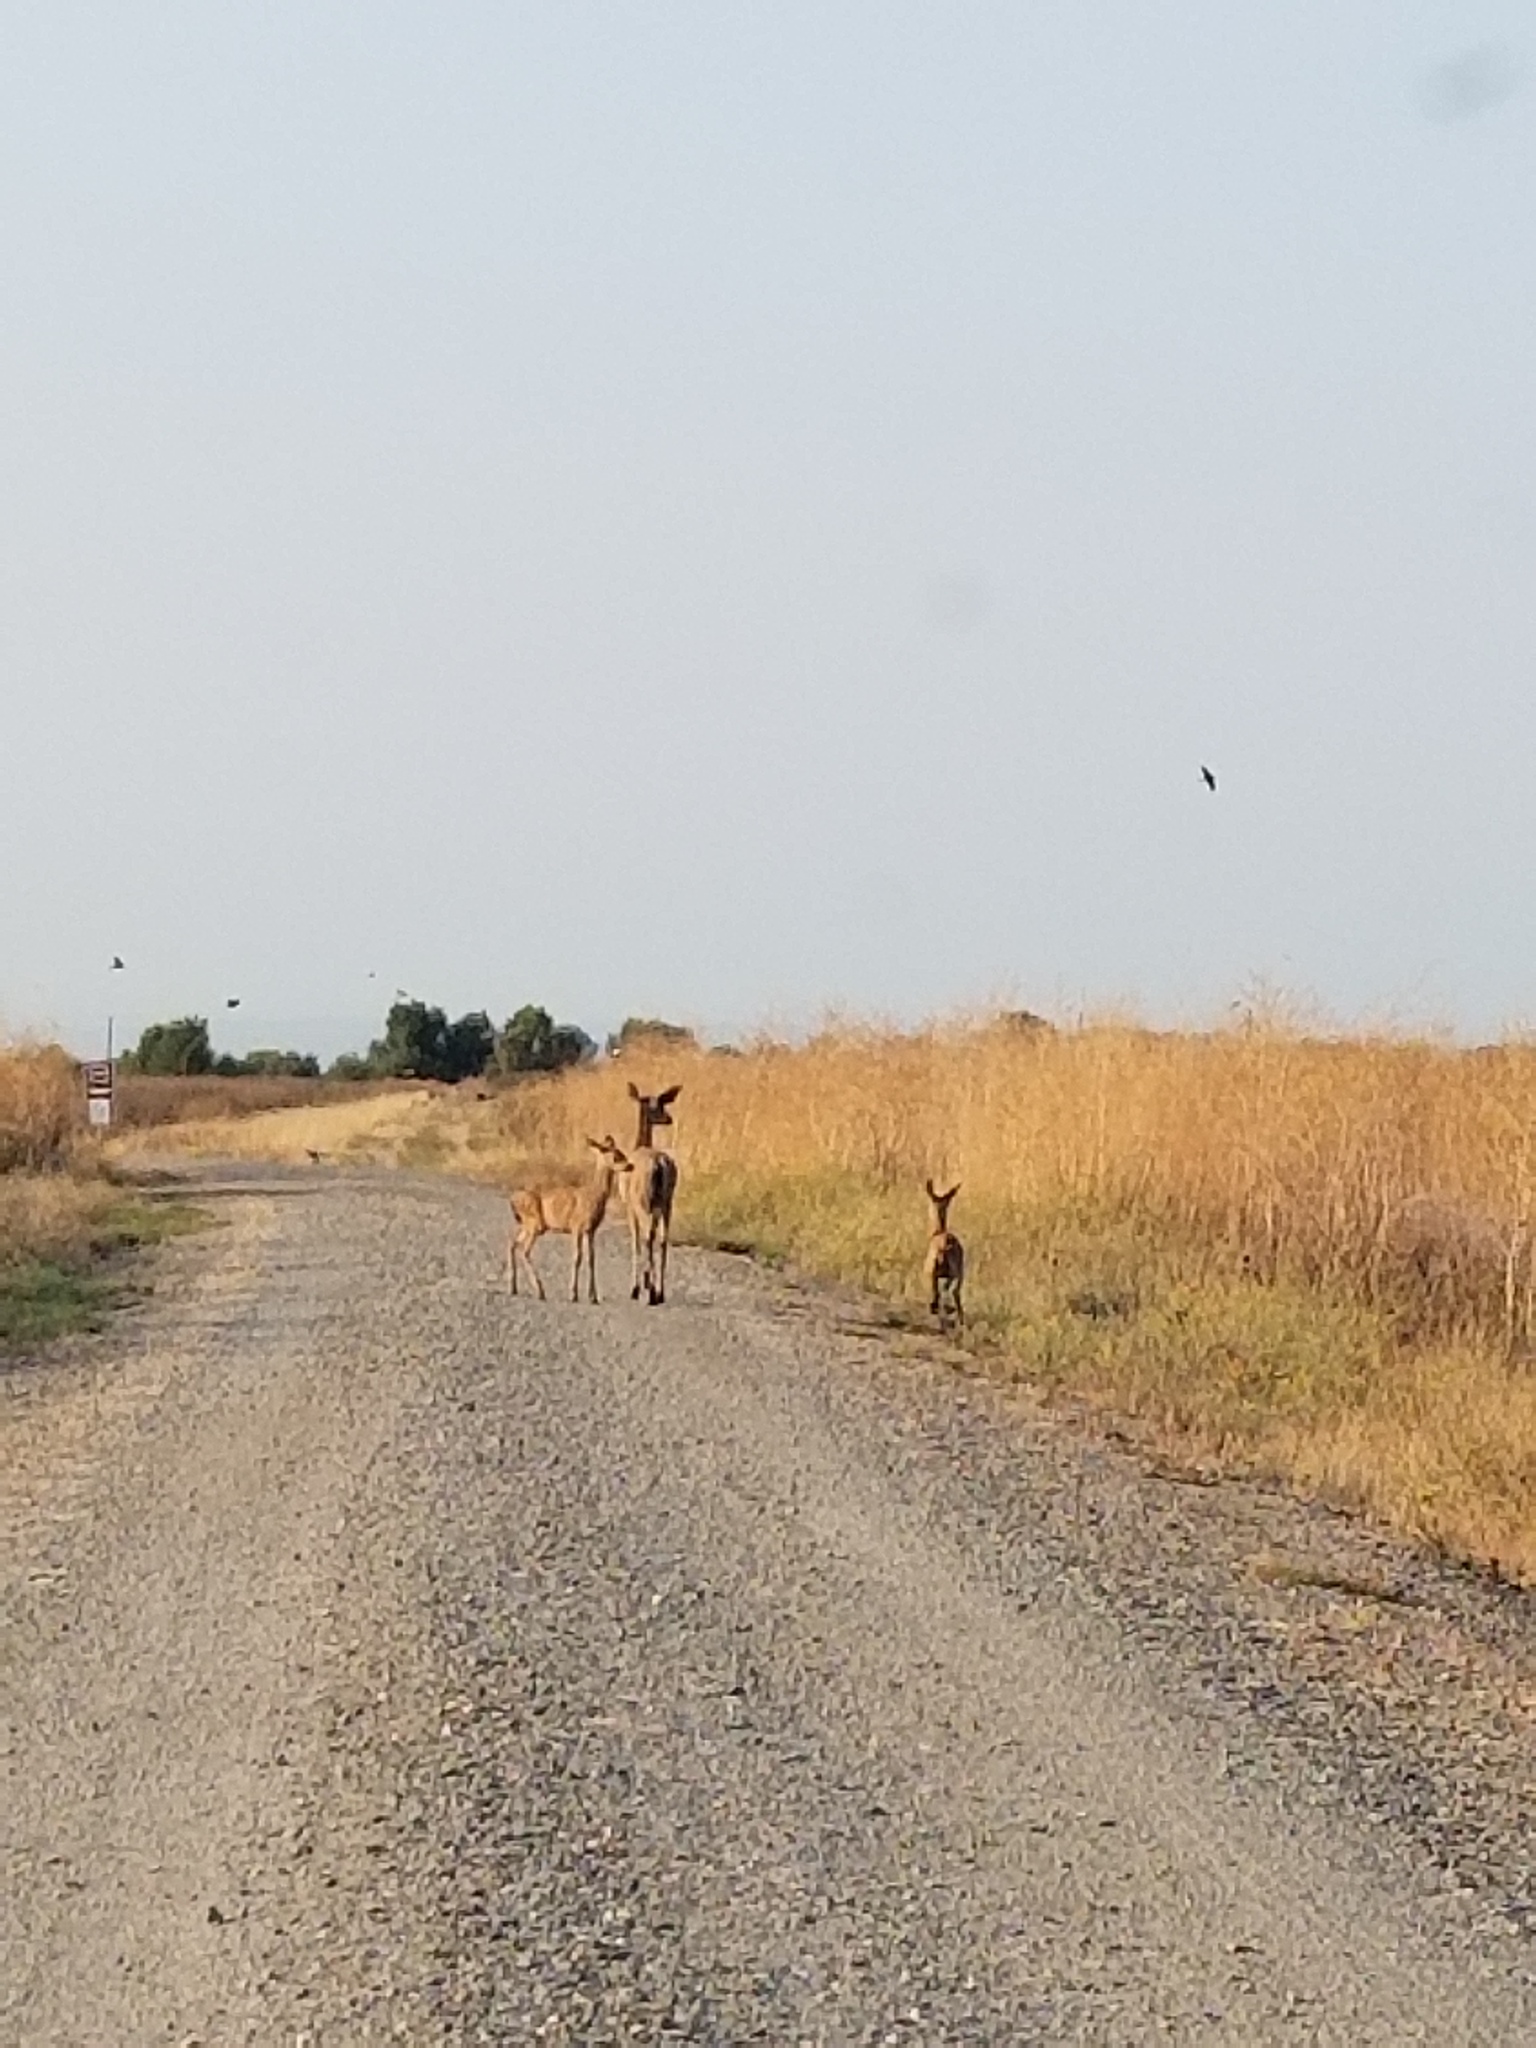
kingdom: Animalia
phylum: Chordata
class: Mammalia
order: Artiodactyla
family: Cervidae
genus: Odocoileus
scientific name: Odocoileus hemionus
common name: Mule deer
